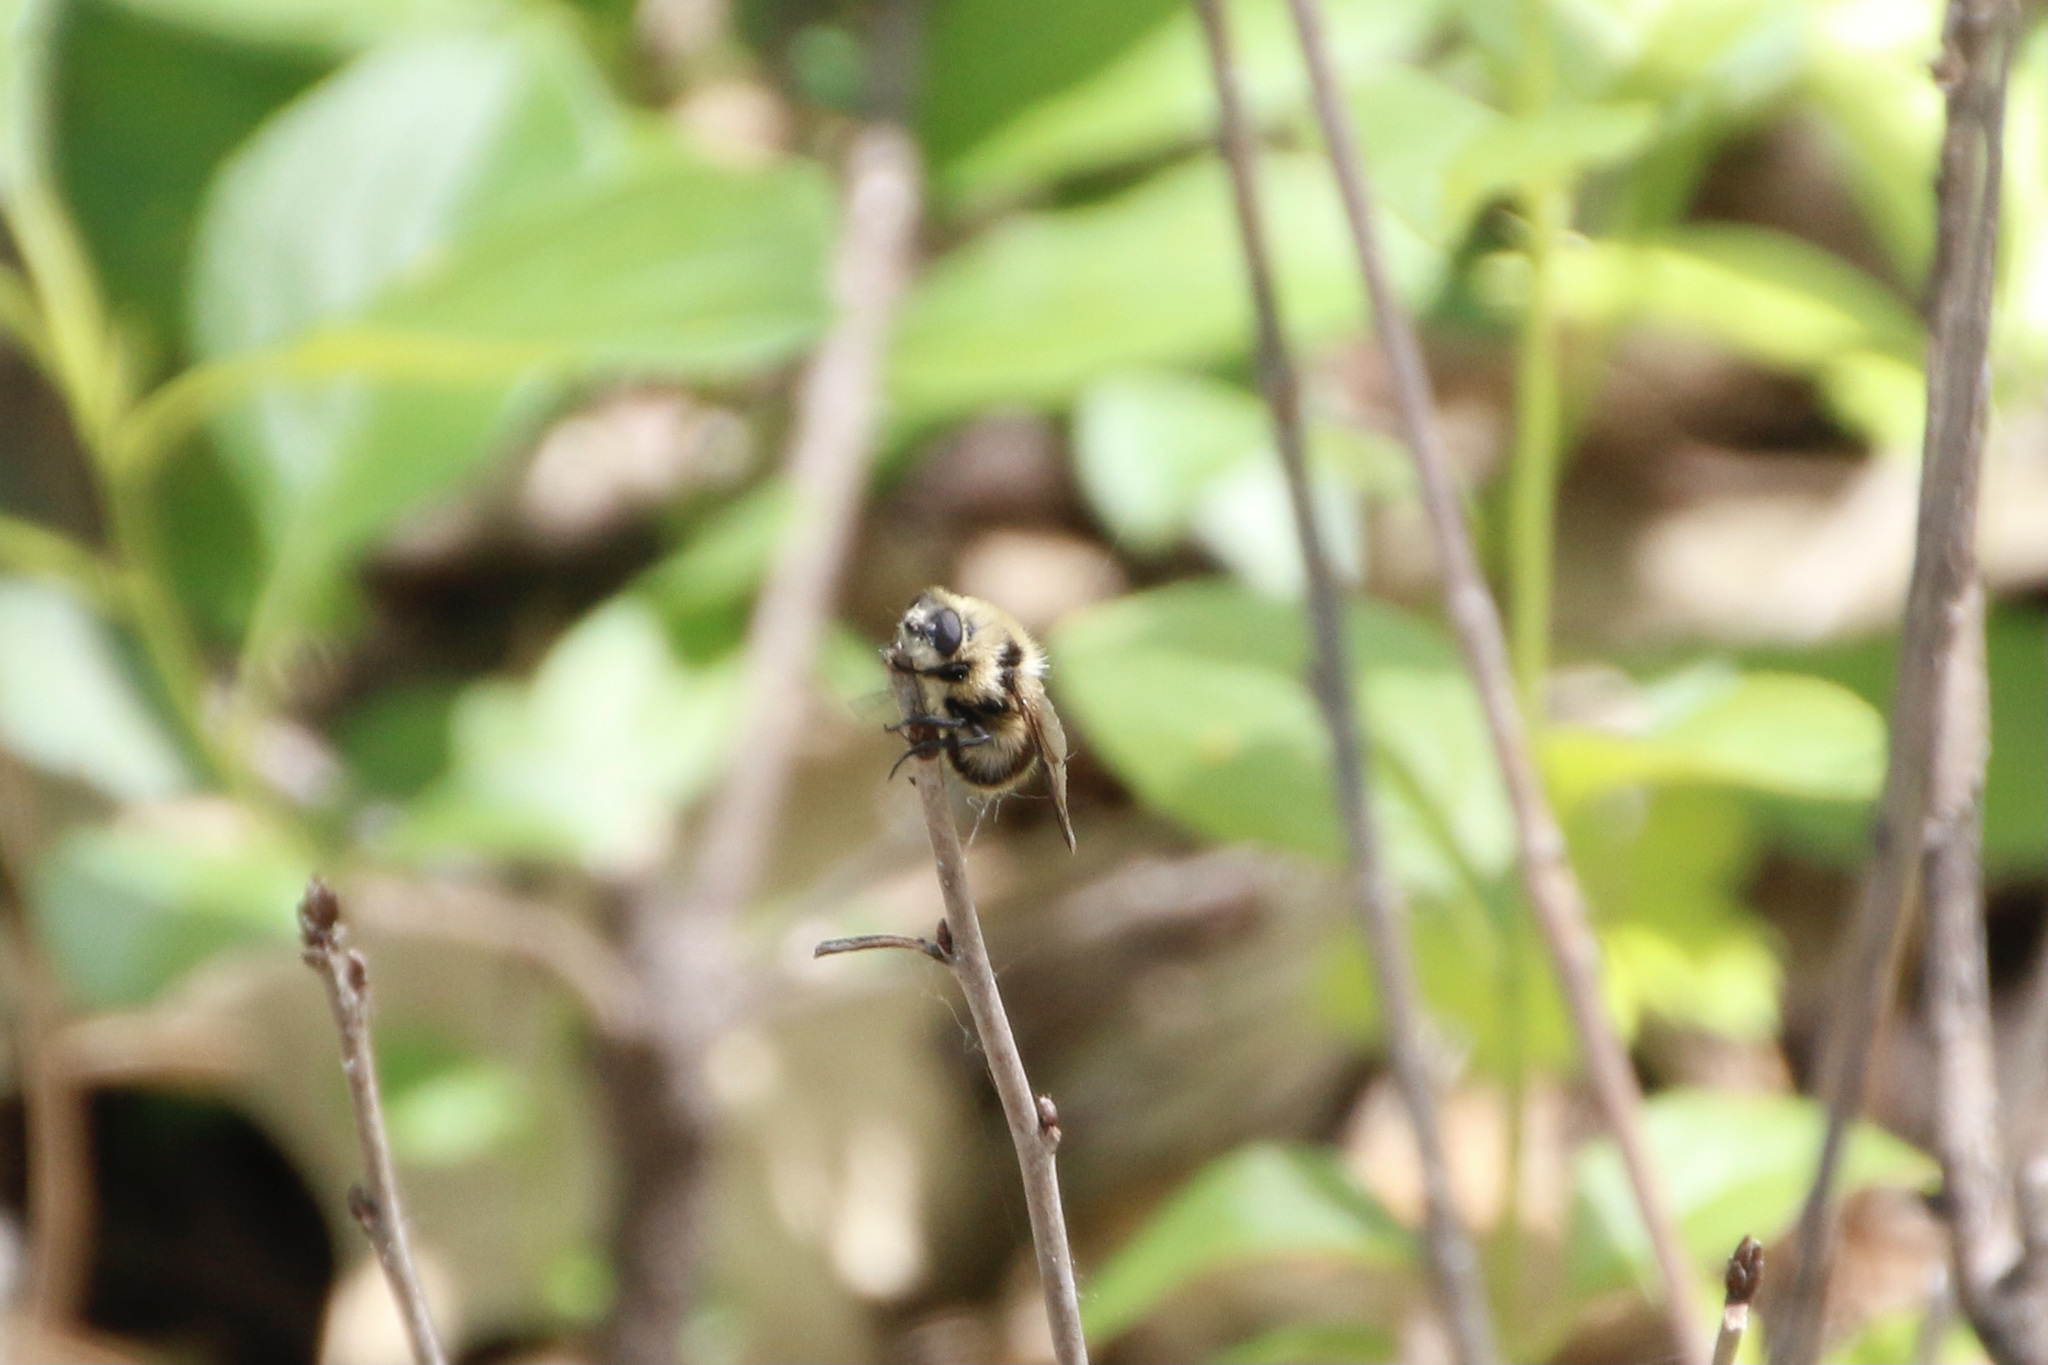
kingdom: Animalia
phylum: Arthropoda
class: Insecta
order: Diptera
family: Oestridae
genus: Cephenemyia
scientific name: Cephenemyia phobifer
